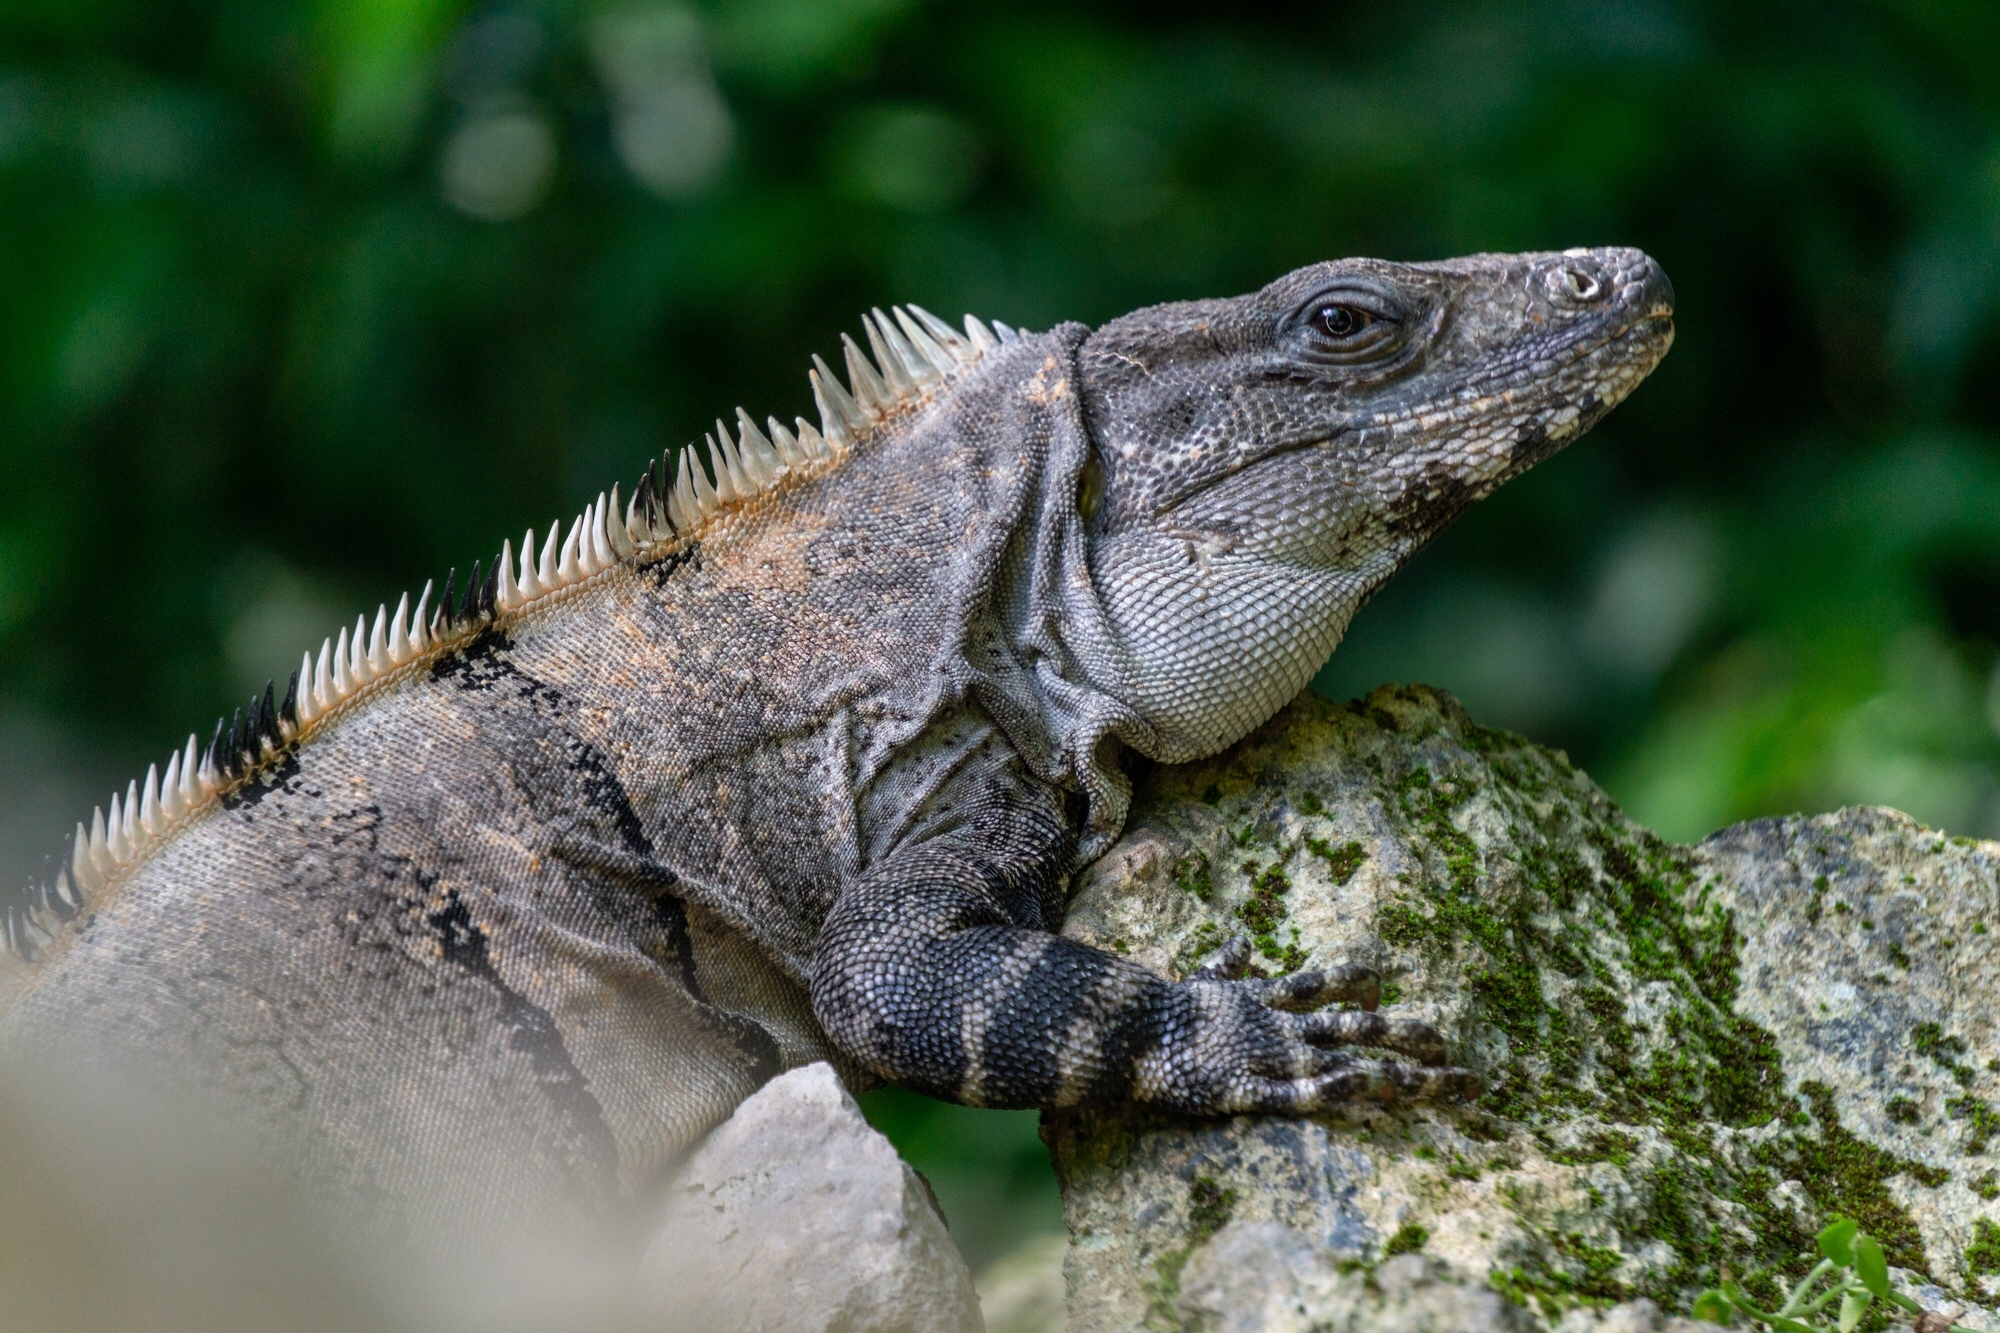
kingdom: Animalia
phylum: Chordata
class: Squamata
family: Iguanidae
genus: Ctenosaura
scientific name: Ctenosaura similis
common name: Black spiny-tailed iguana
